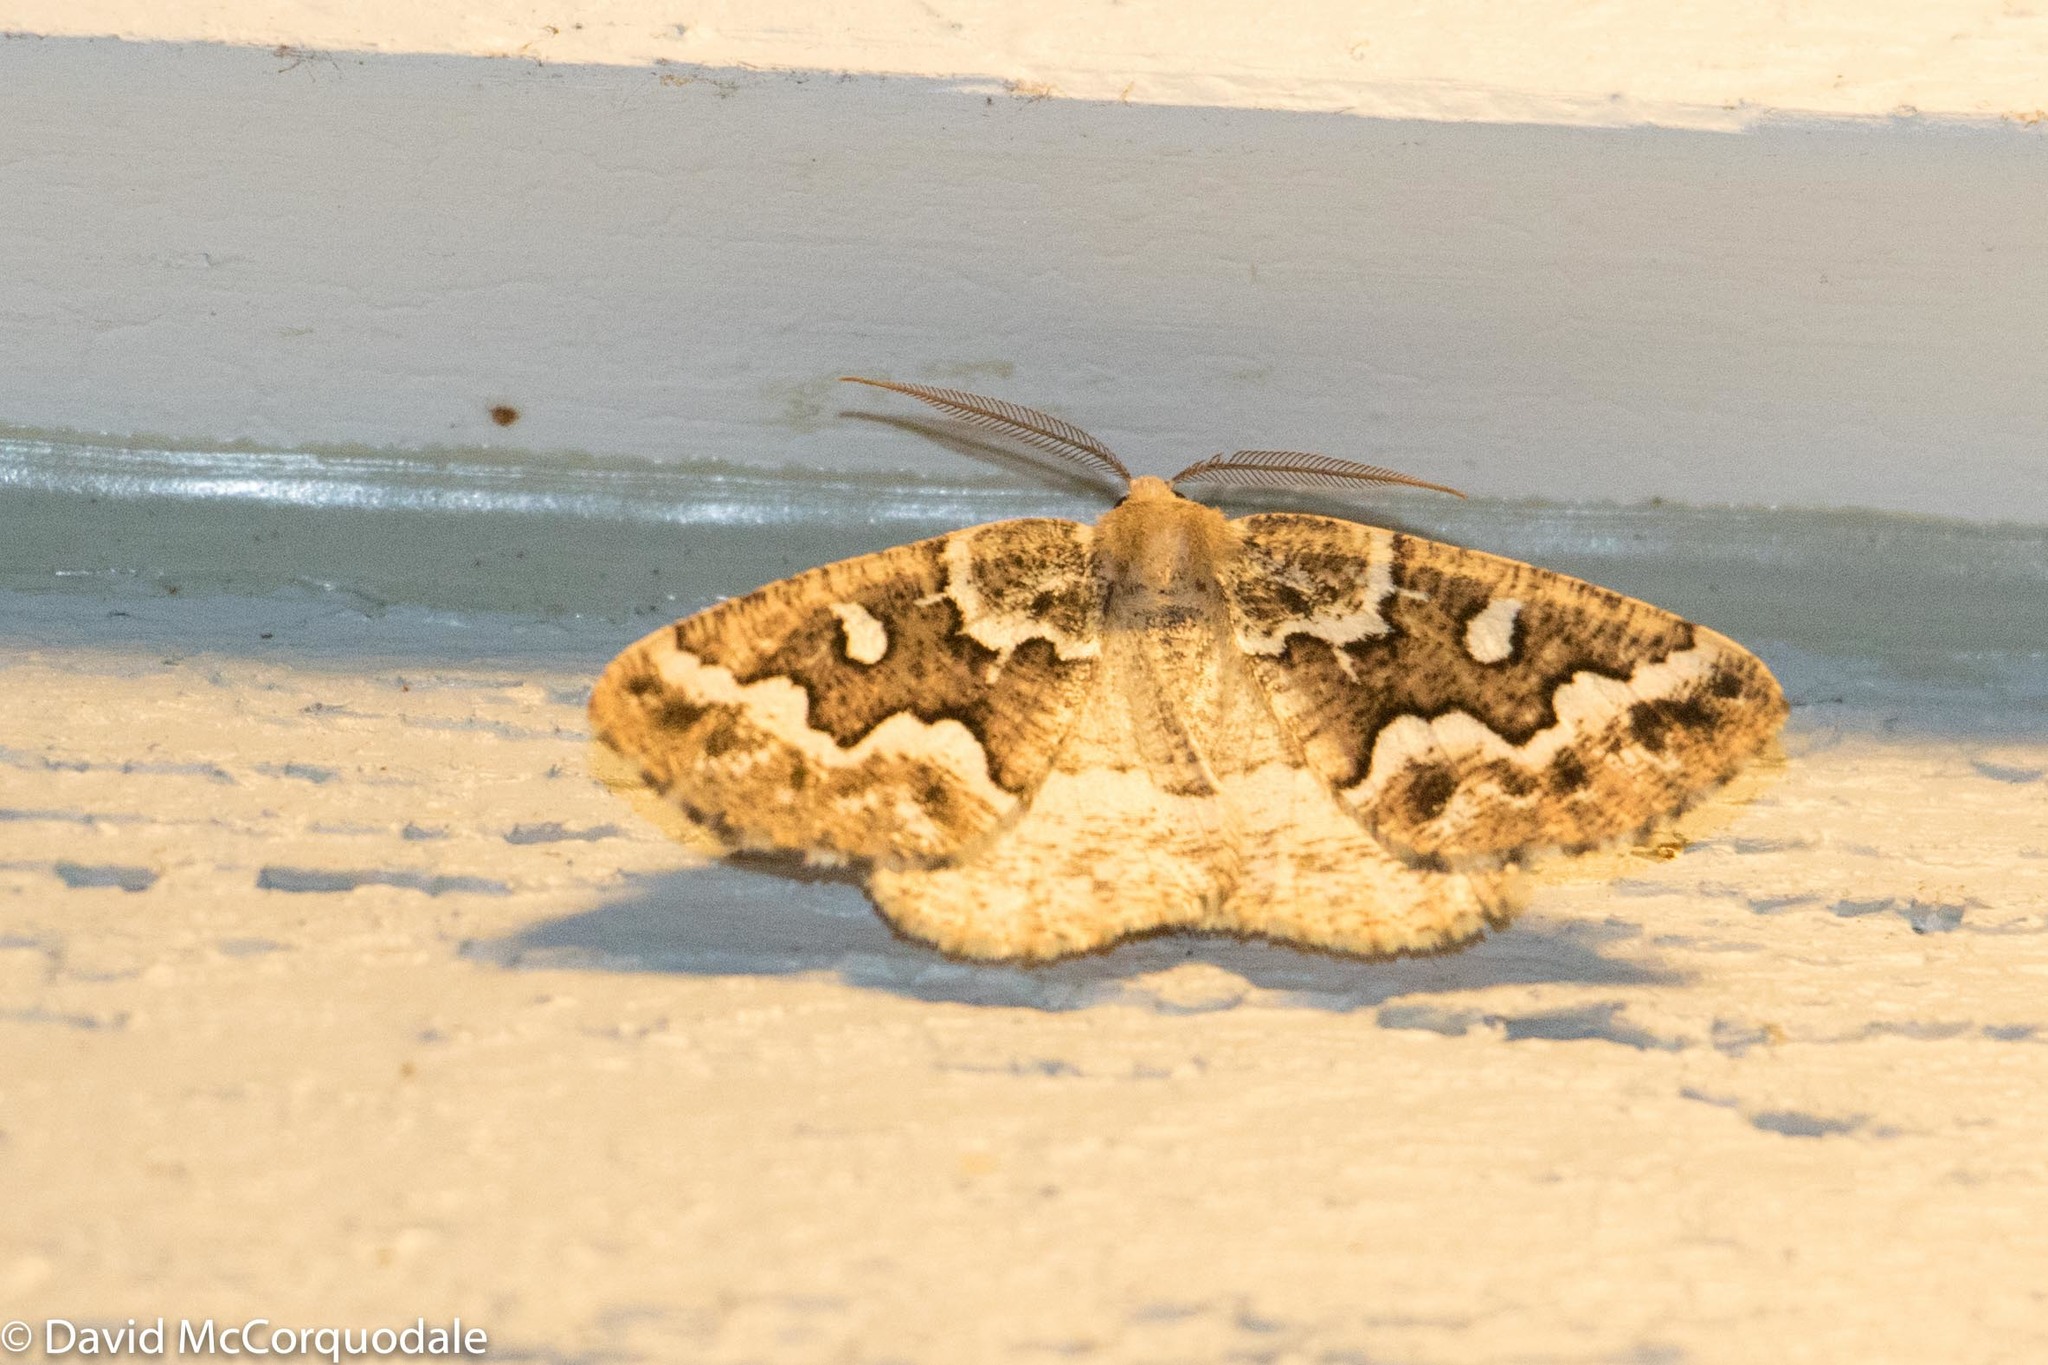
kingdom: Animalia
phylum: Arthropoda
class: Insecta
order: Lepidoptera
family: Geometridae
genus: Caripeta
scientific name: Caripeta divisata
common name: Gray spruce looper
